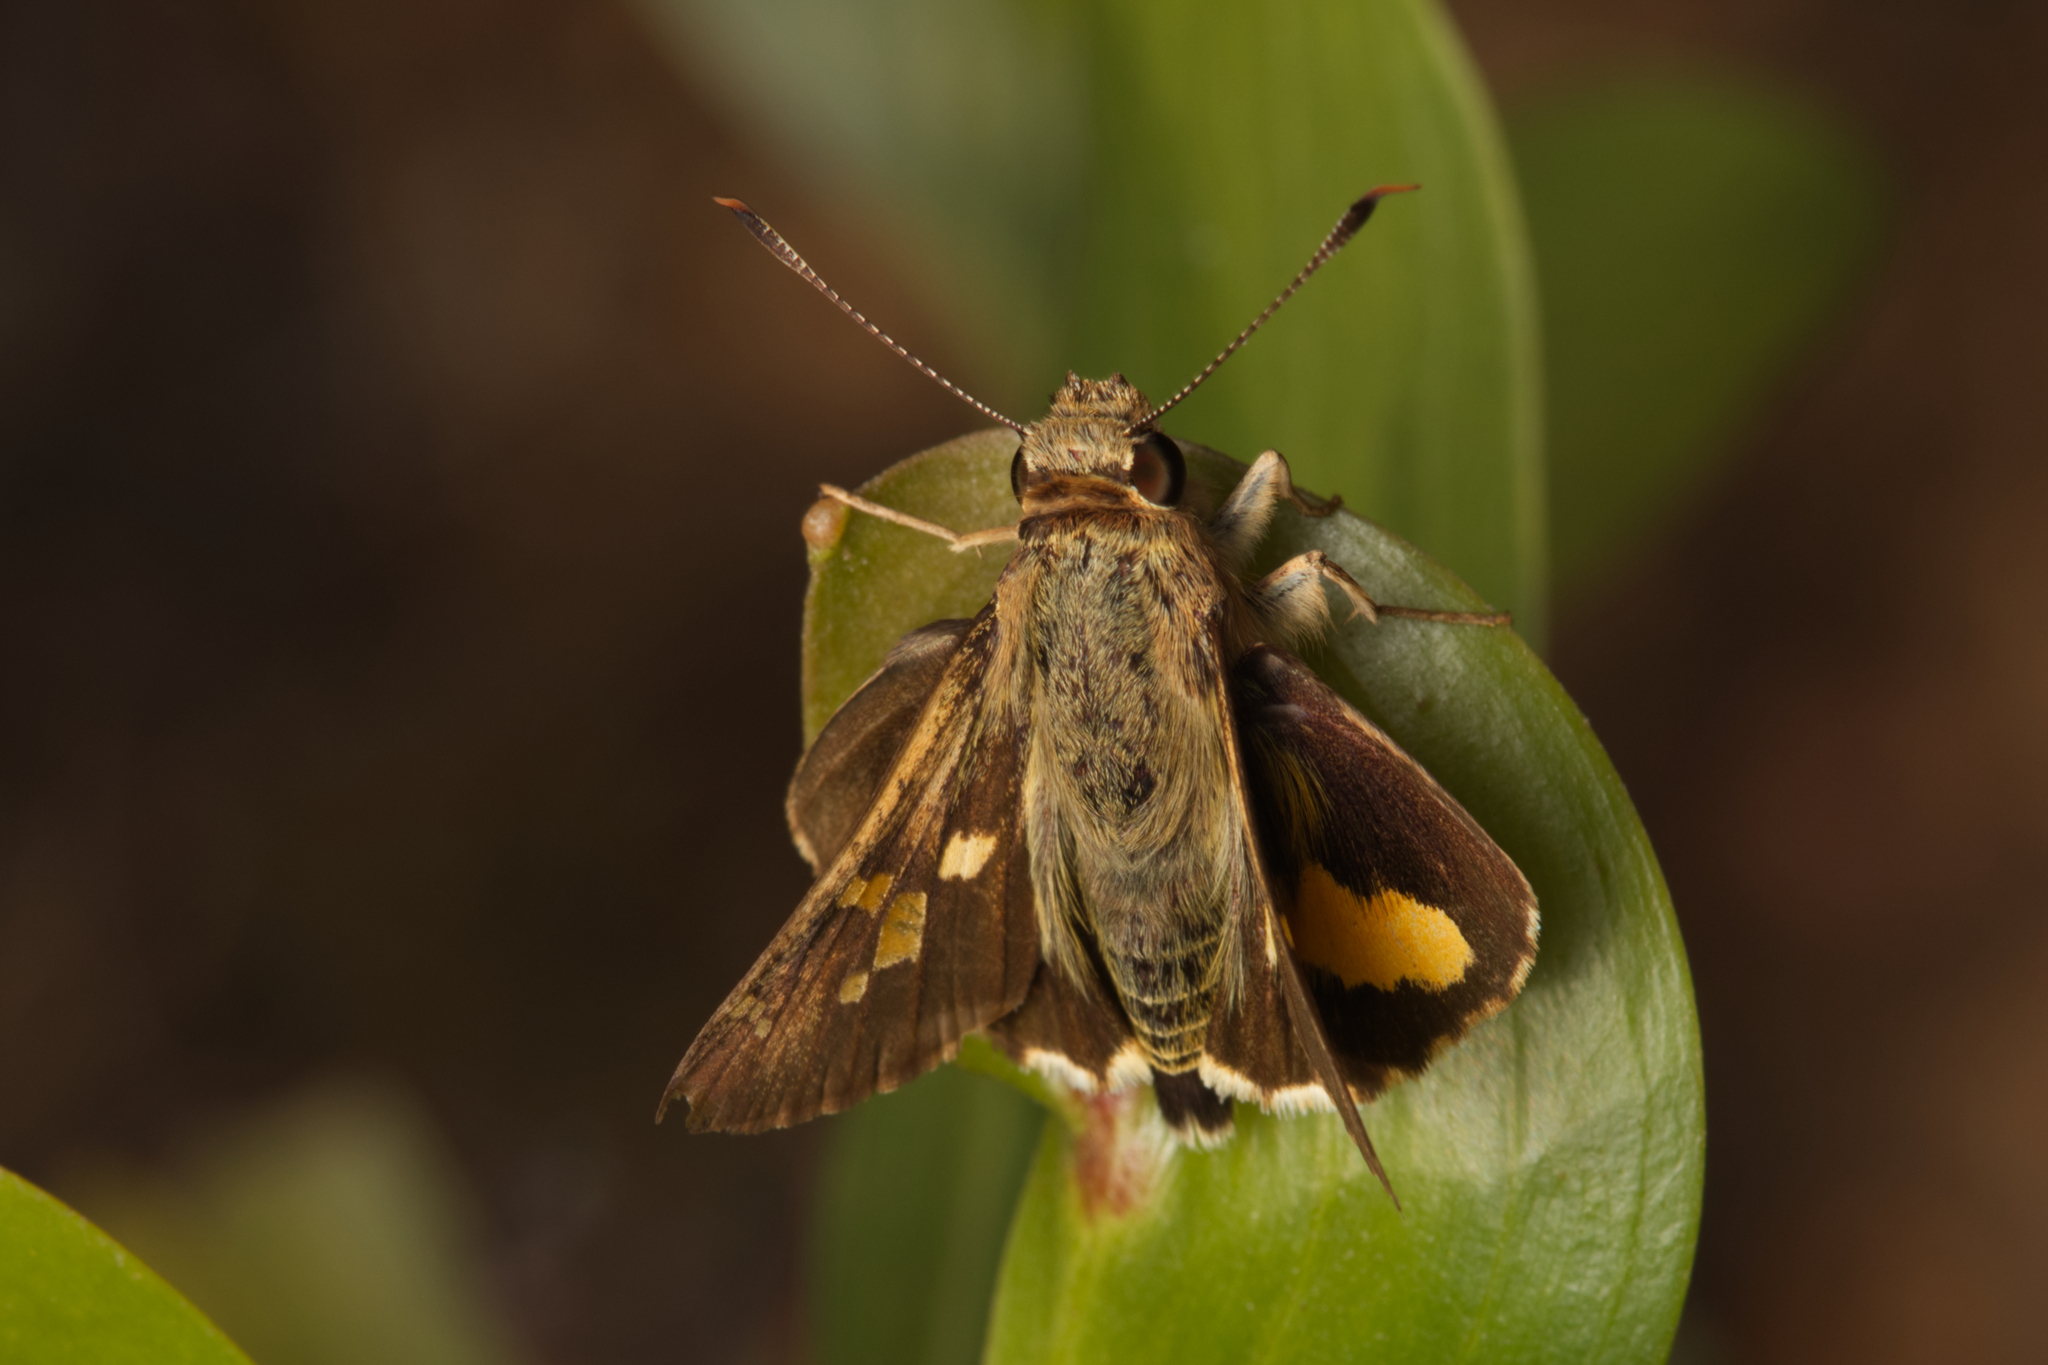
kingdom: Animalia
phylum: Arthropoda
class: Insecta
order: Lepidoptera
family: Hesperiidae
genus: Trapezites
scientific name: Trapezites maheta
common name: Northern silver ochre
